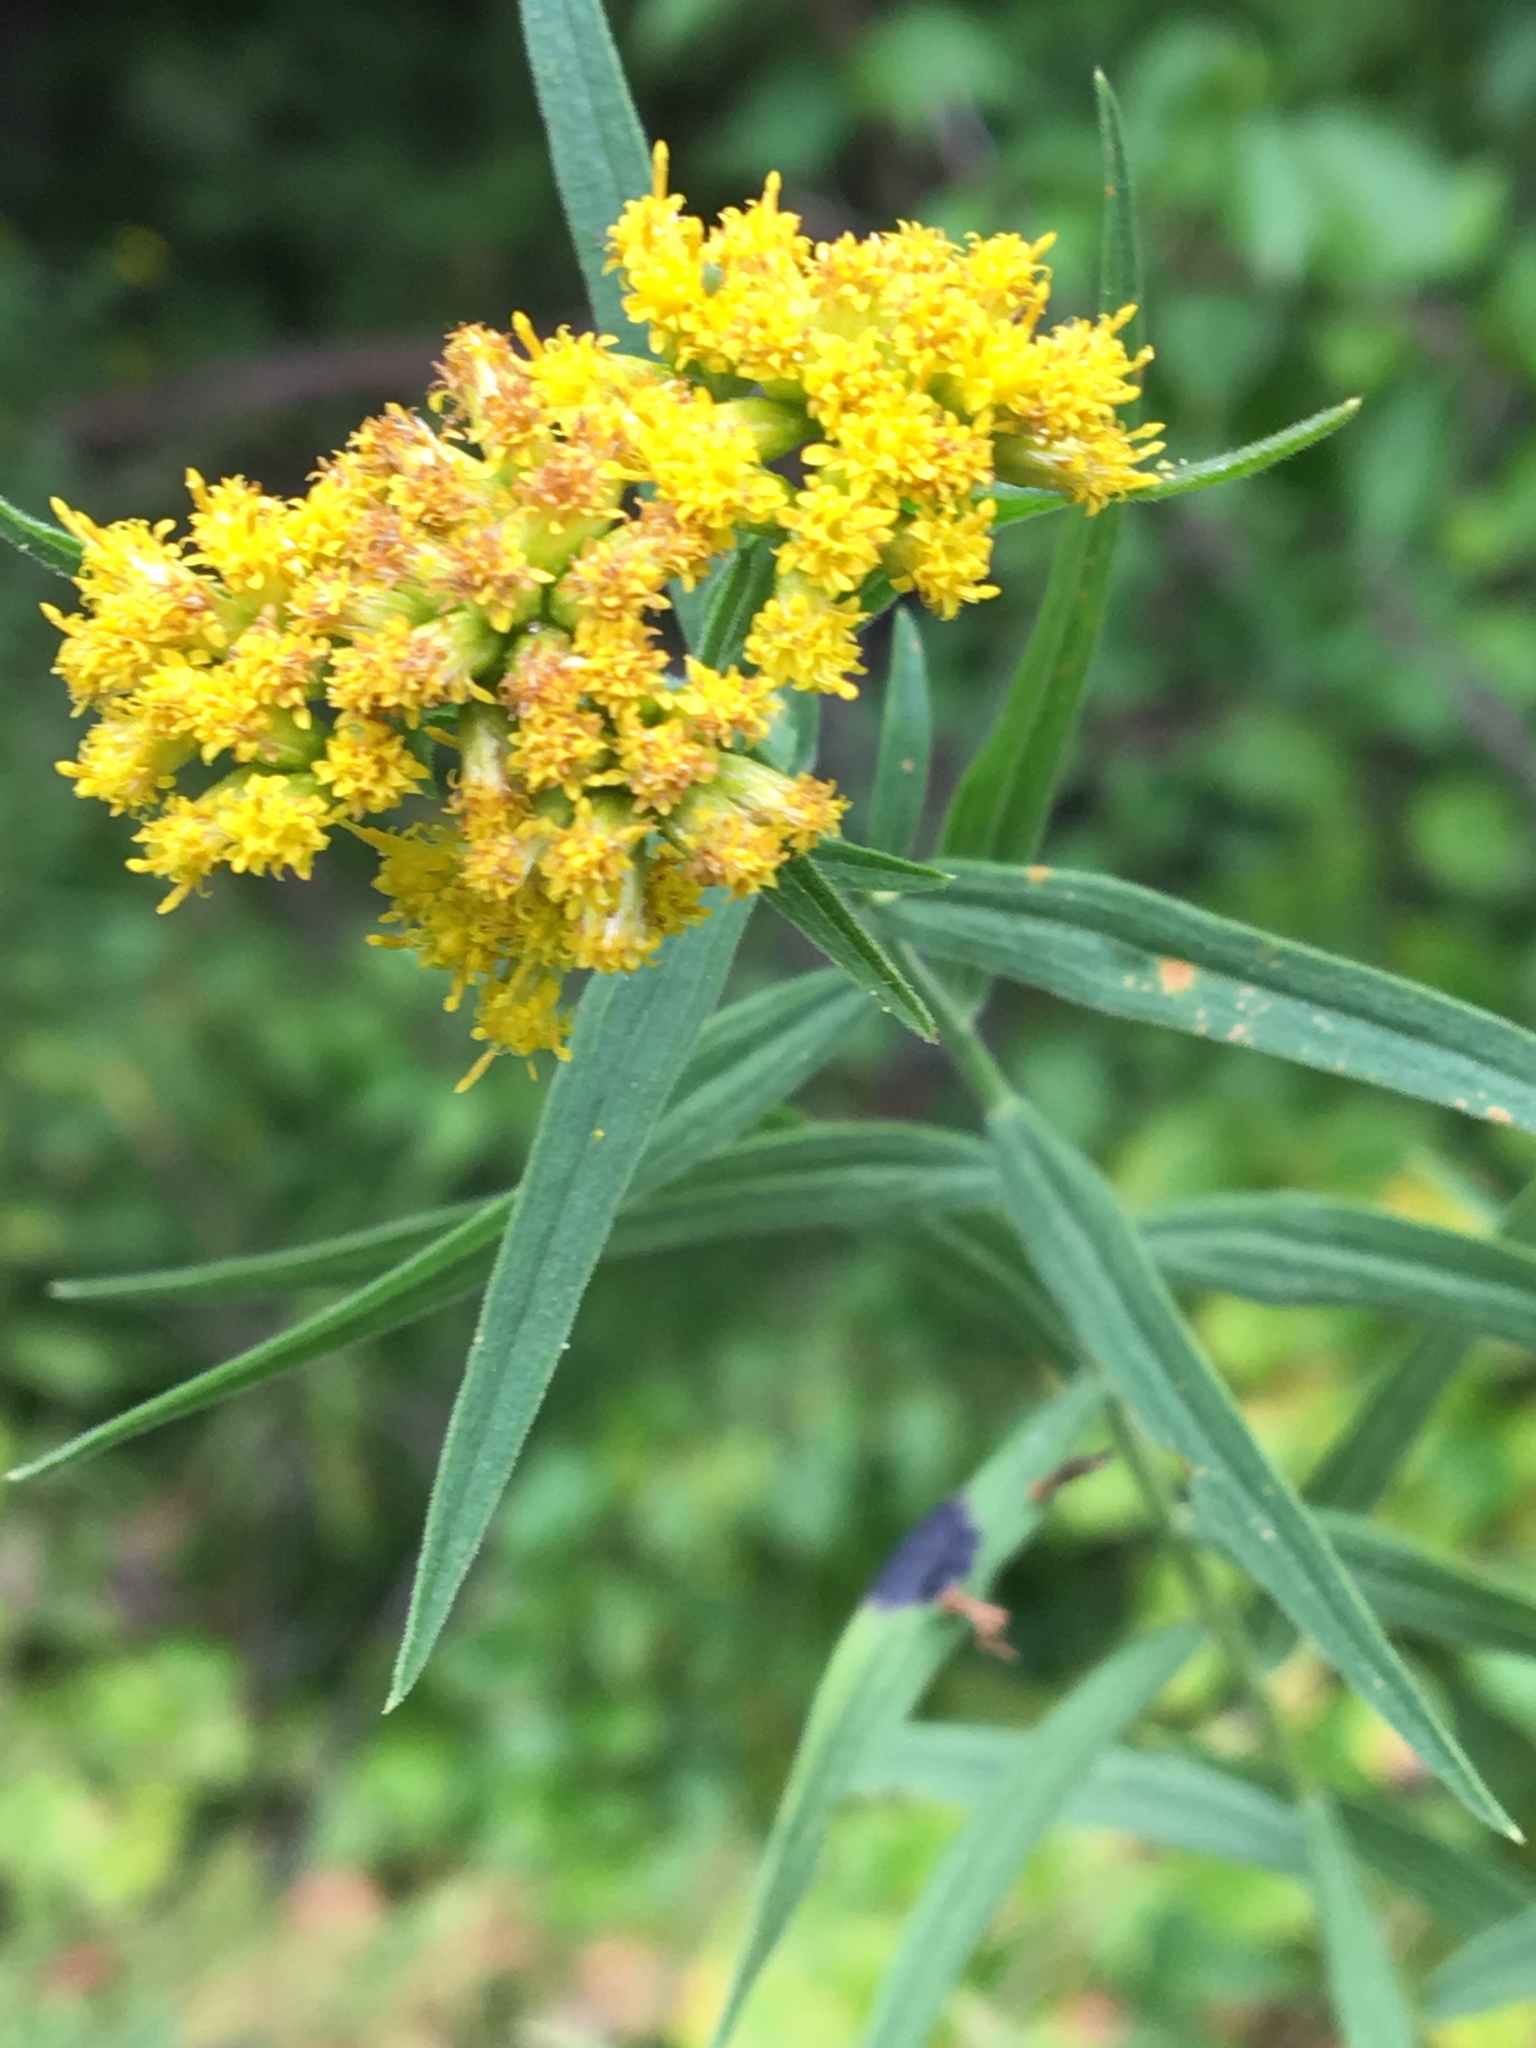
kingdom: Plantae
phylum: Tracheophyta
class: Magnoliopsida
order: Asterales
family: Asteraceae
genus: Euthamia
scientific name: Euthamia graminifolia
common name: Common goldentop
